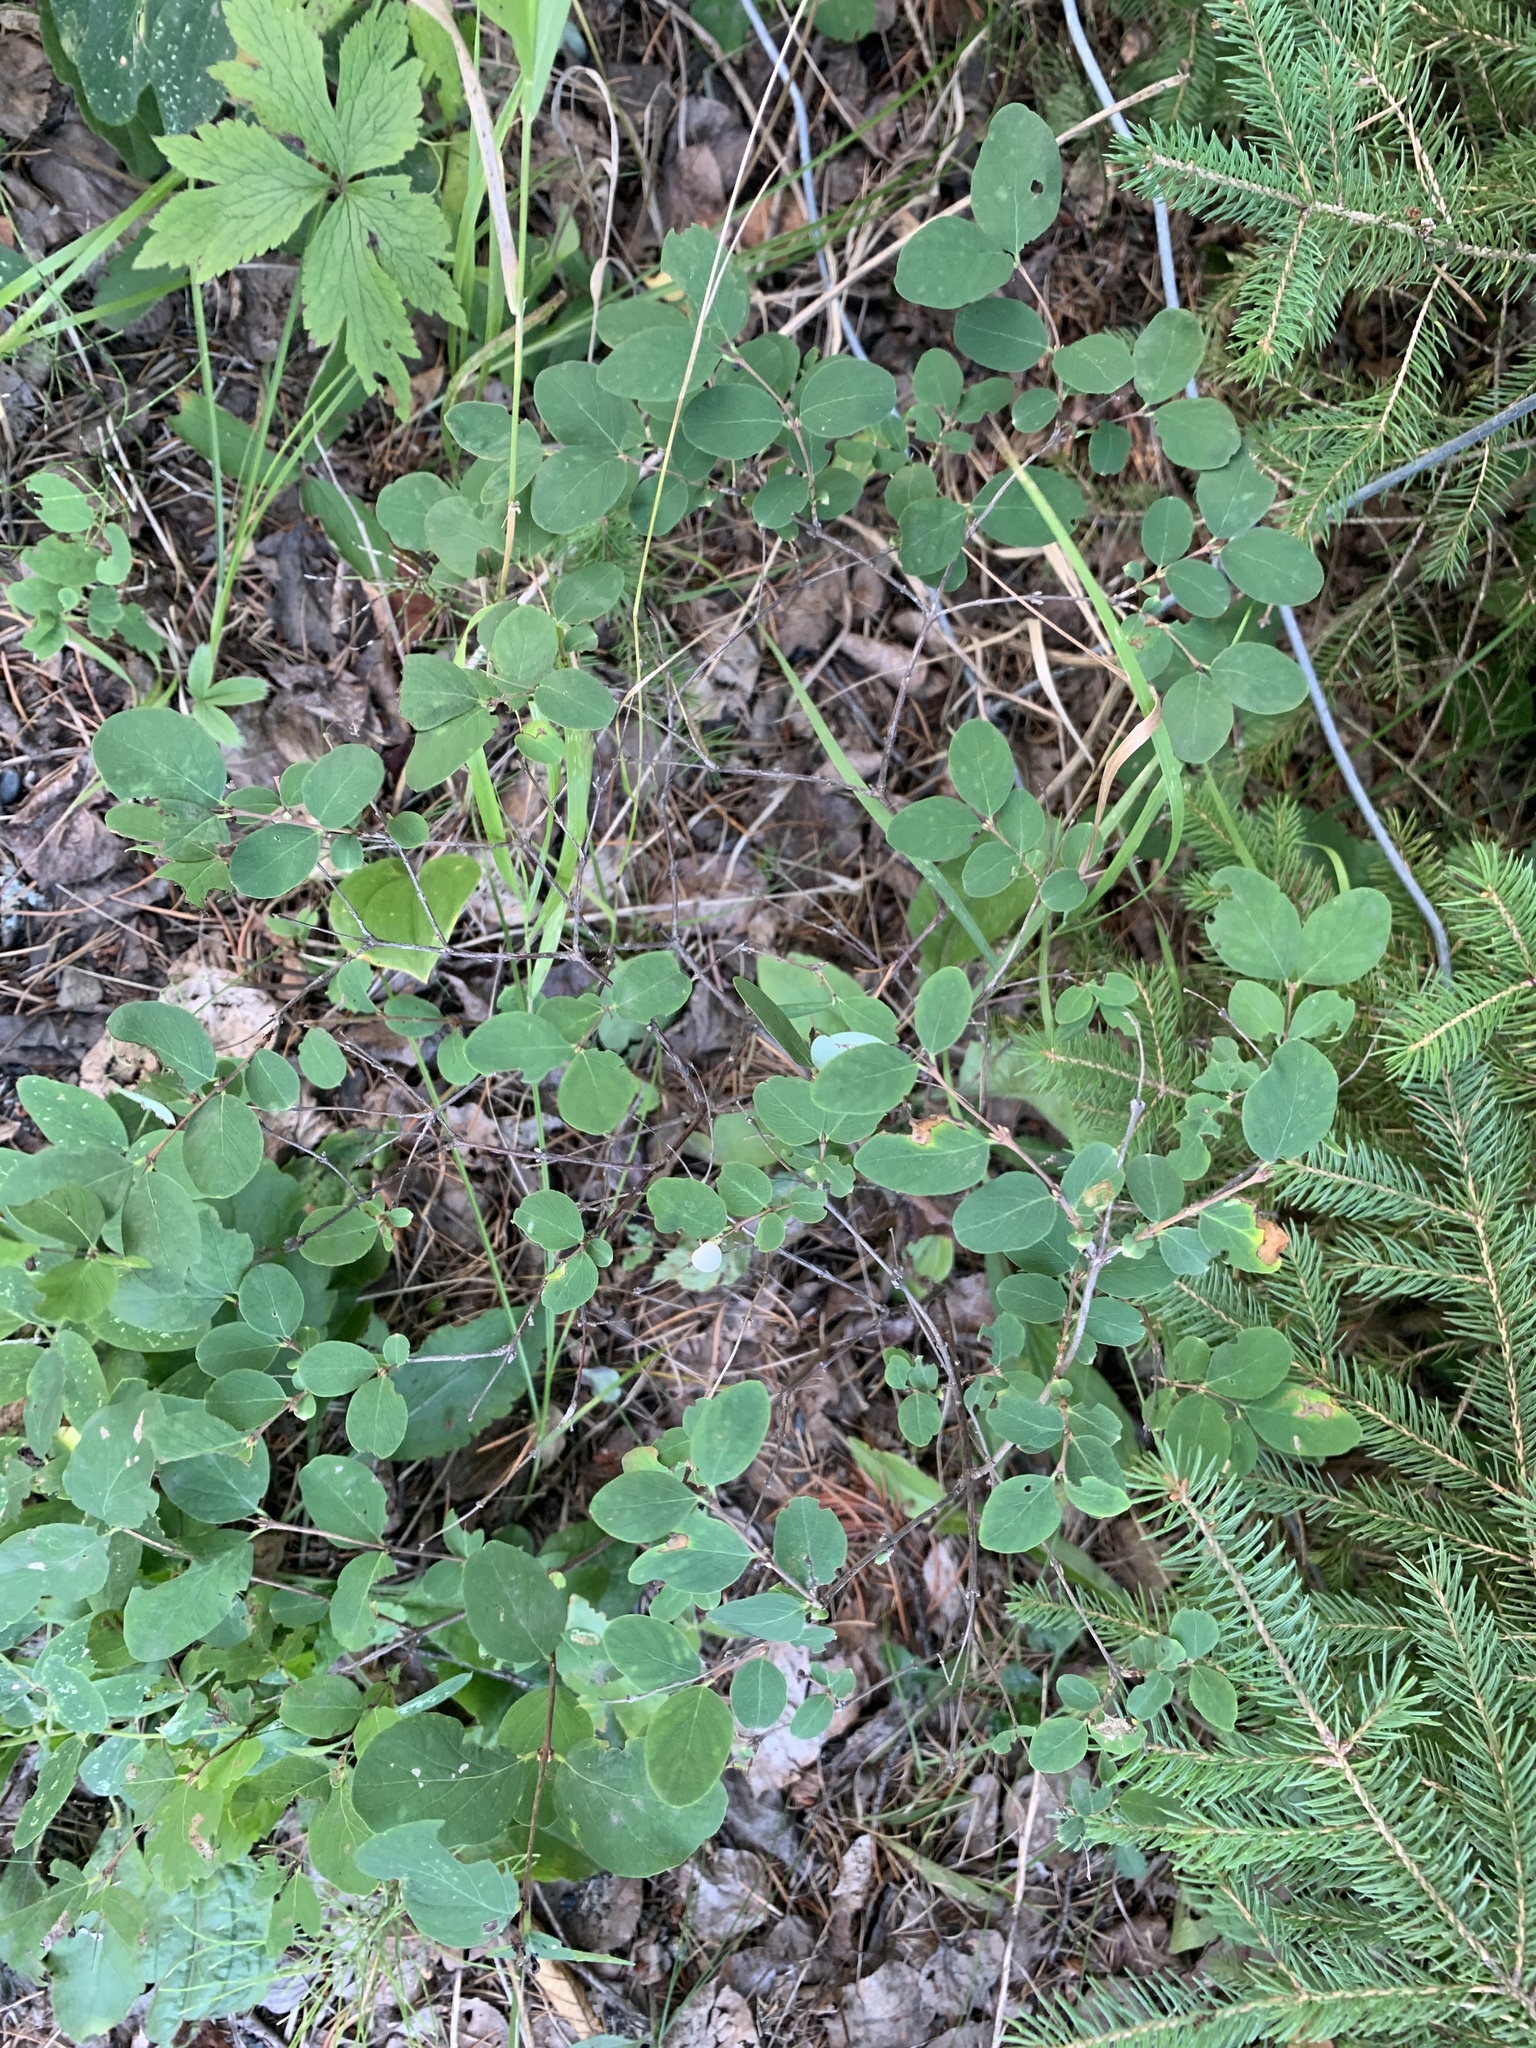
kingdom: Plantae
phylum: Tracheophyta
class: Magnoliopsida
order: Dipsacales
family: Caprifoliaceae
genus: Symphoricarpos
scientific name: Symphoricarpos albus
